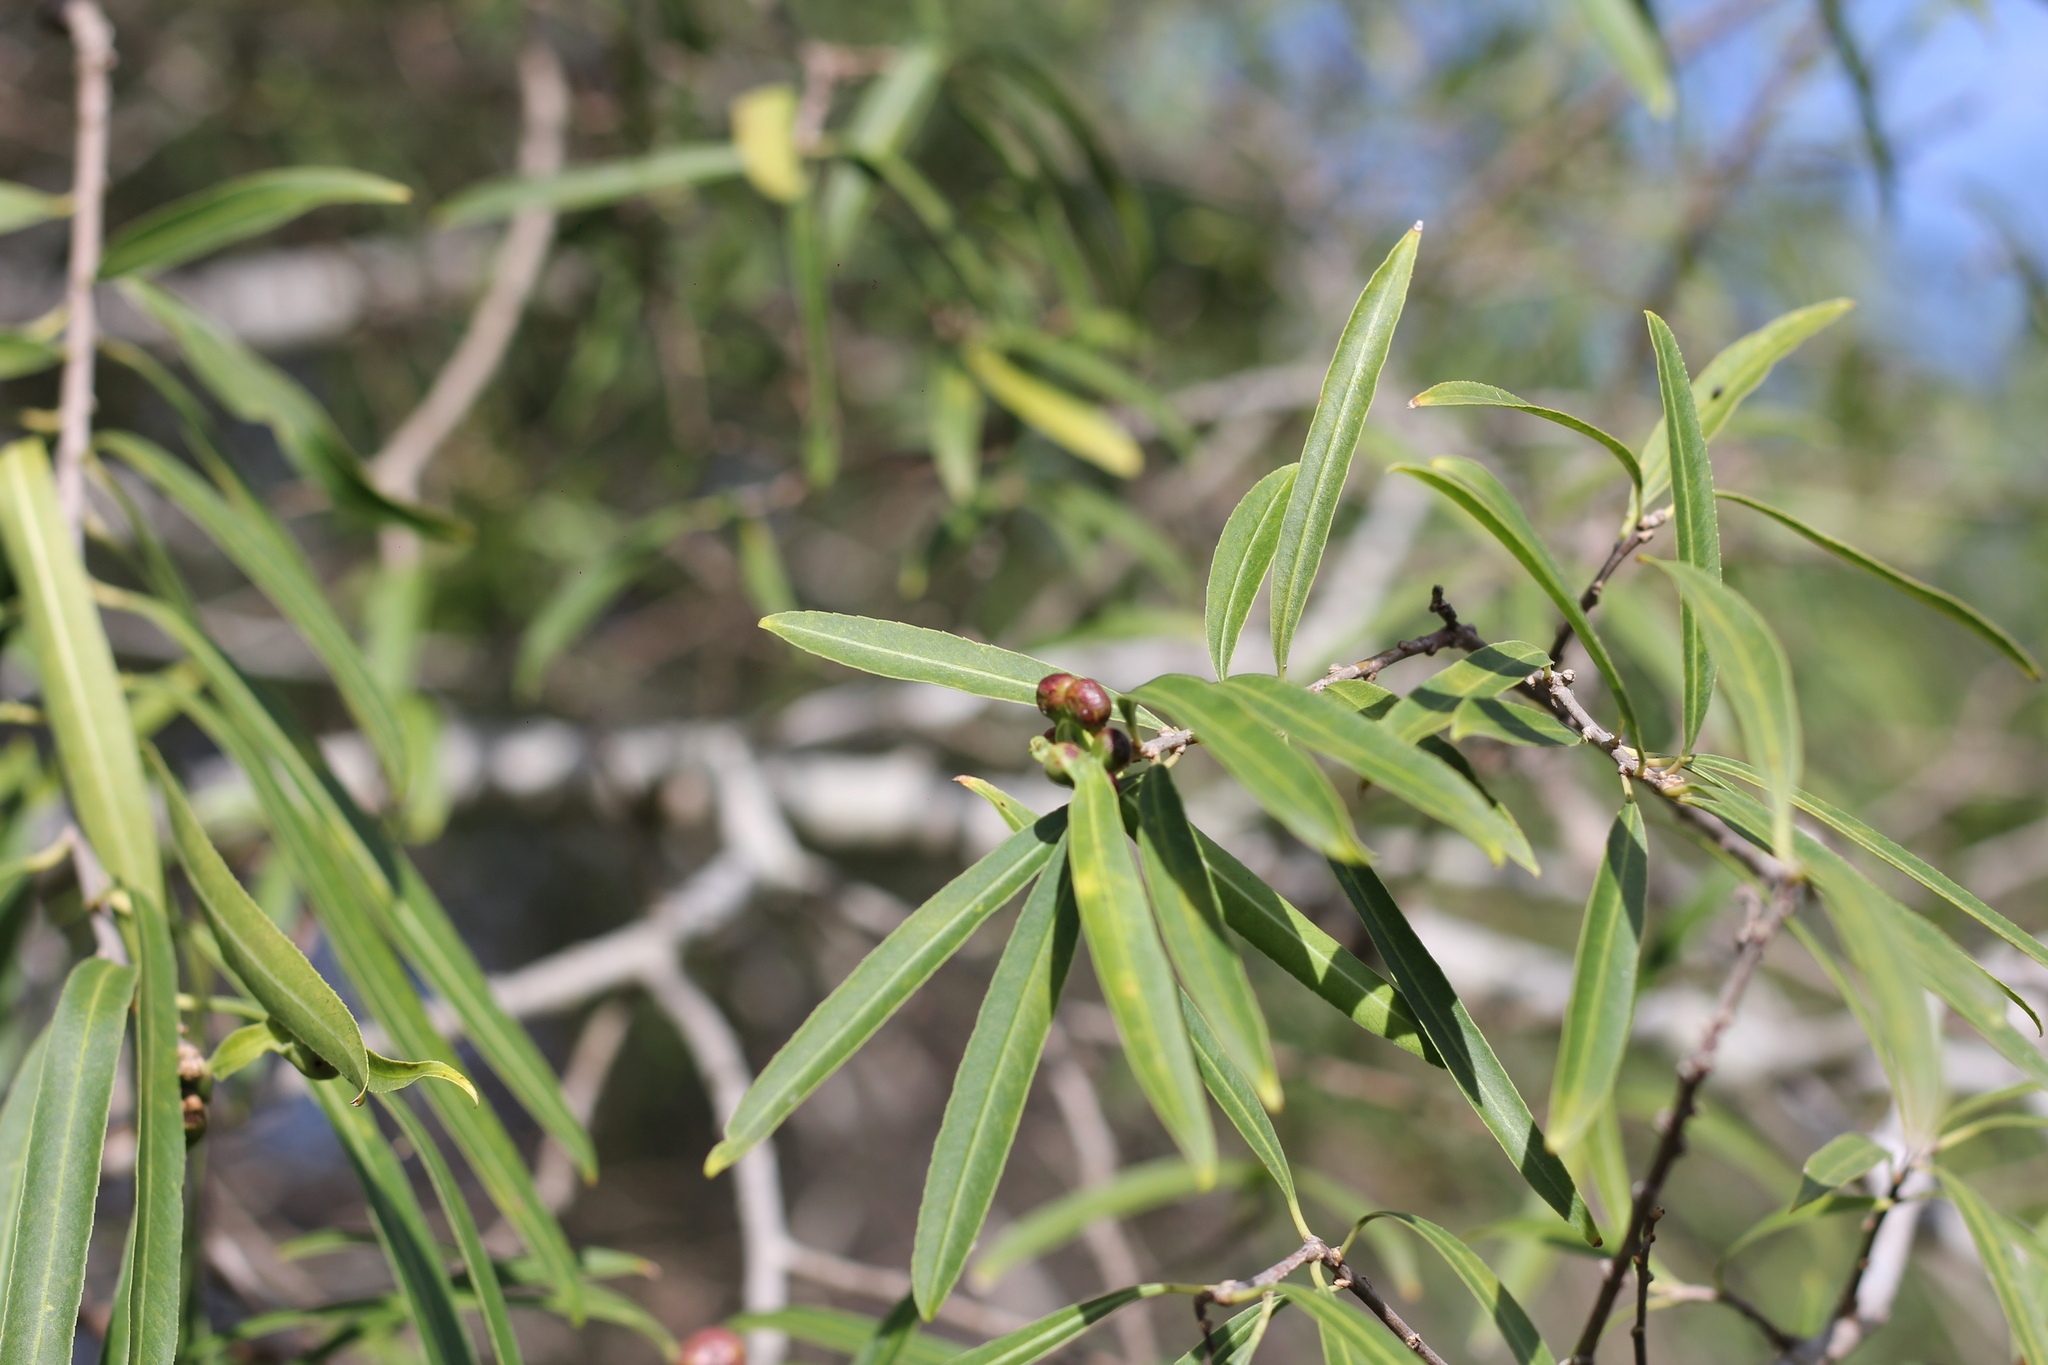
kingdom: Plantae
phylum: Tracheophyta
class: Magnoliopsida
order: Malpighiales
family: Euphorbiaceae
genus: Sapium
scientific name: Sapium haematospermum
